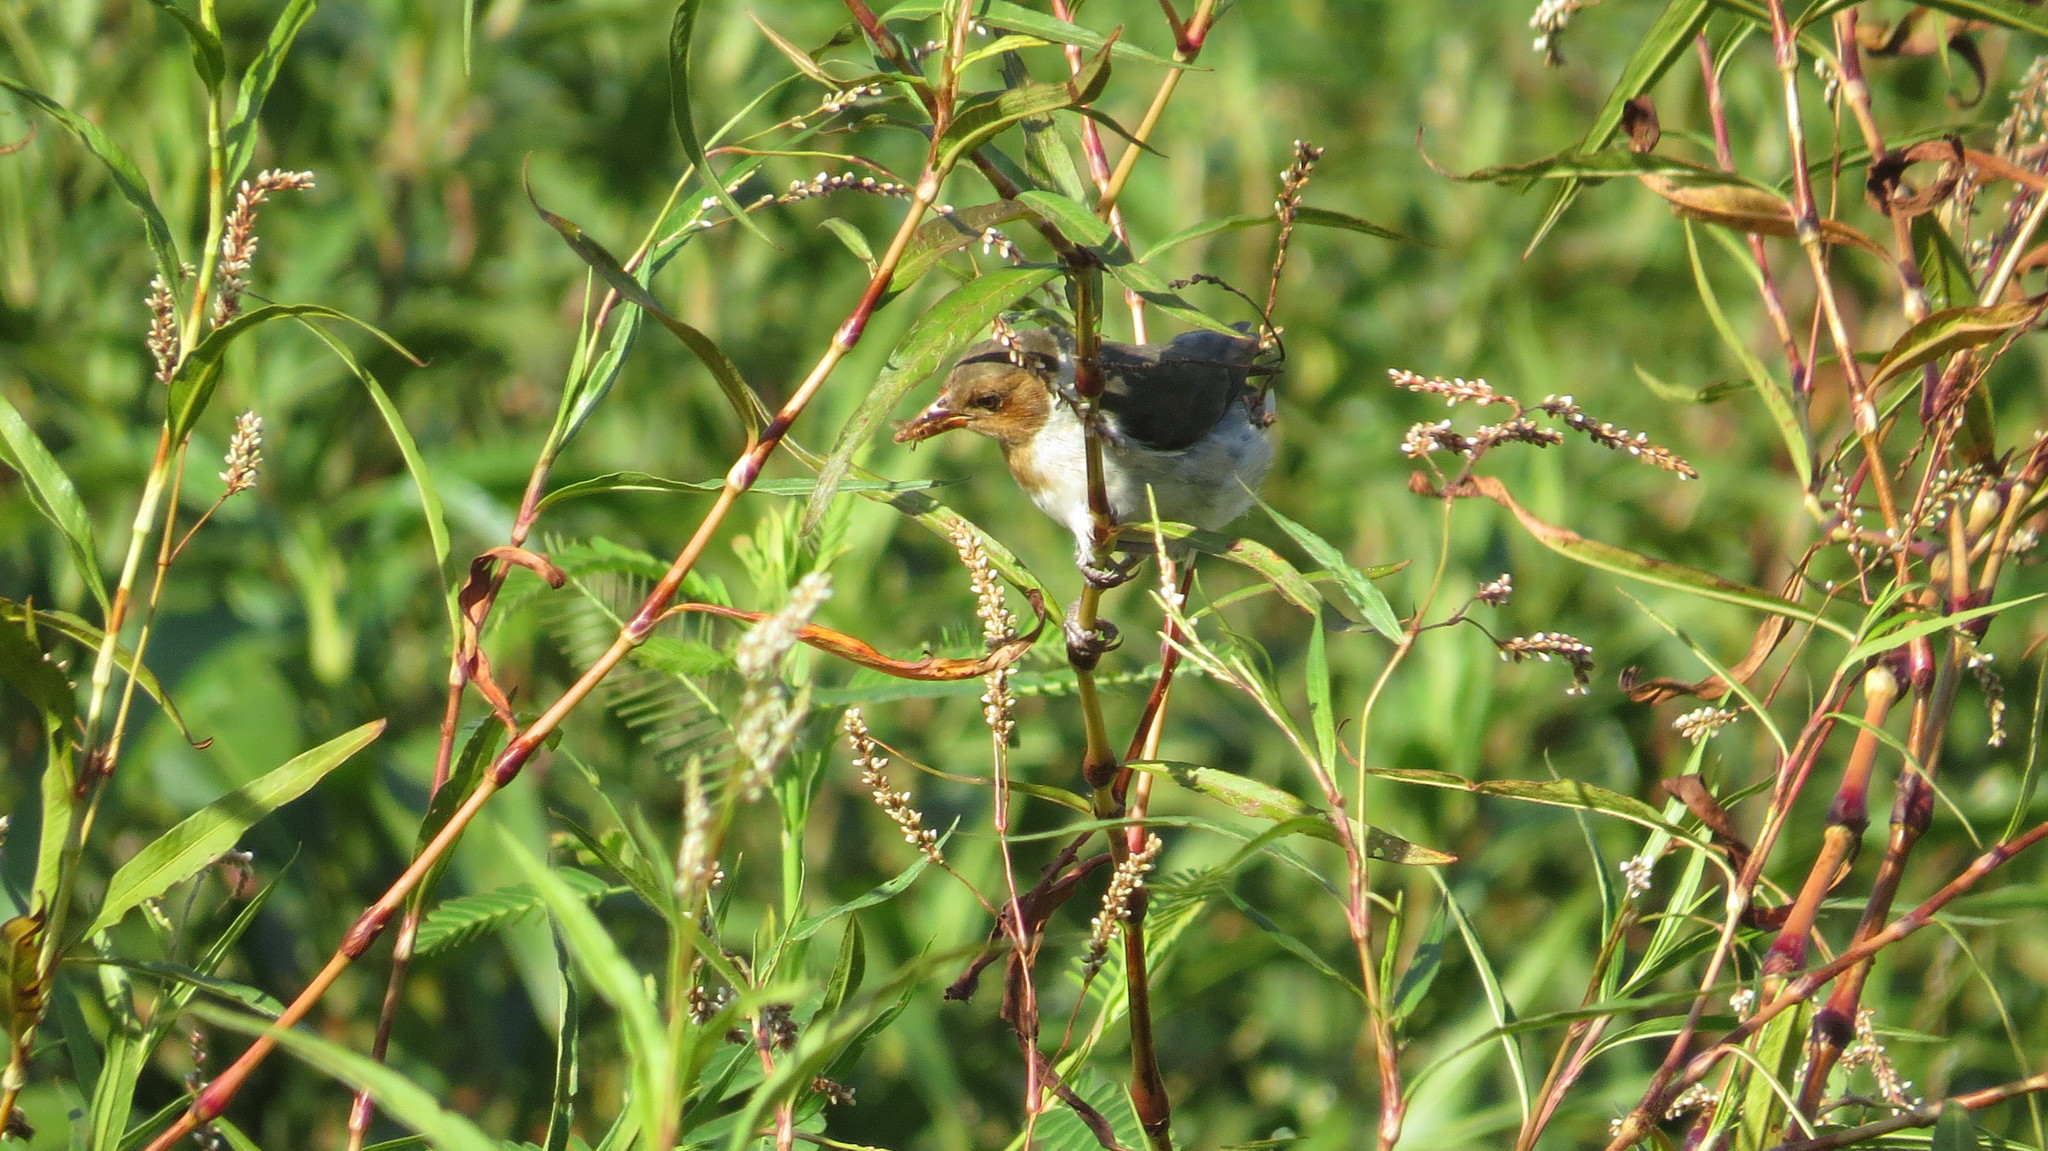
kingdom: Animalia
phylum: Chordata
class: Aves
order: Passeriformes
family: Thraupidae
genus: Paroaria
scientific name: Paroaria capitata
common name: Yellow-billed cardinal
